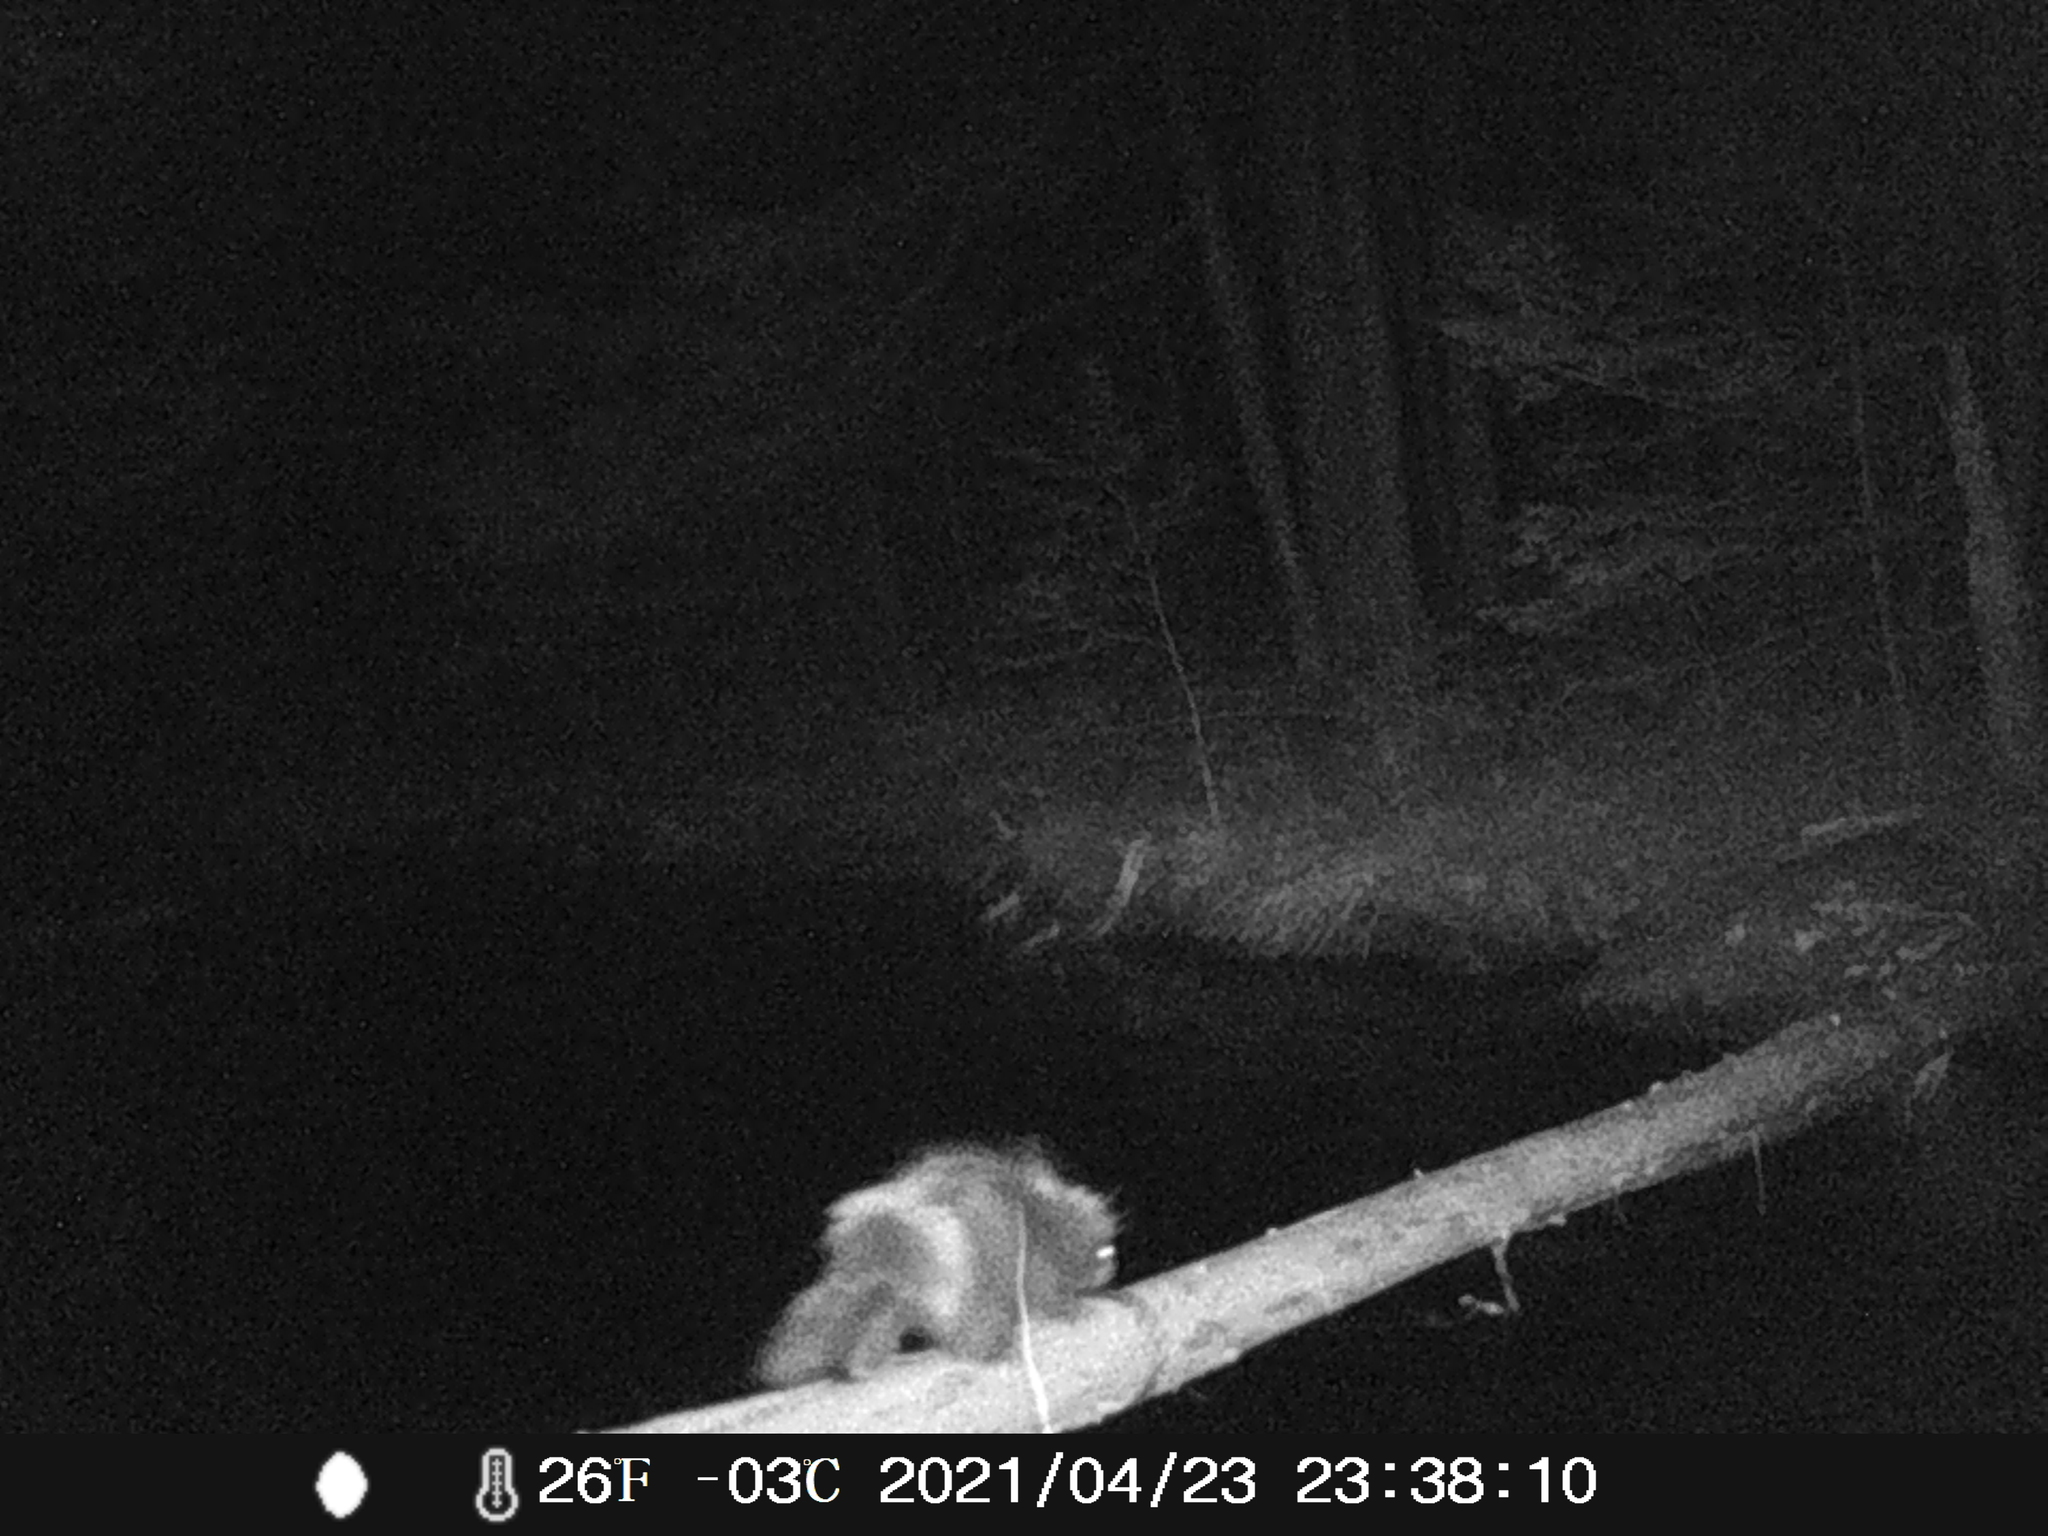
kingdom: Animalia
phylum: Chordata
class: Mammalia
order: Rodentia
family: Erethizontidae
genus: Erethizon
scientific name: Erethizon dorsatus
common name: North american porcupine
